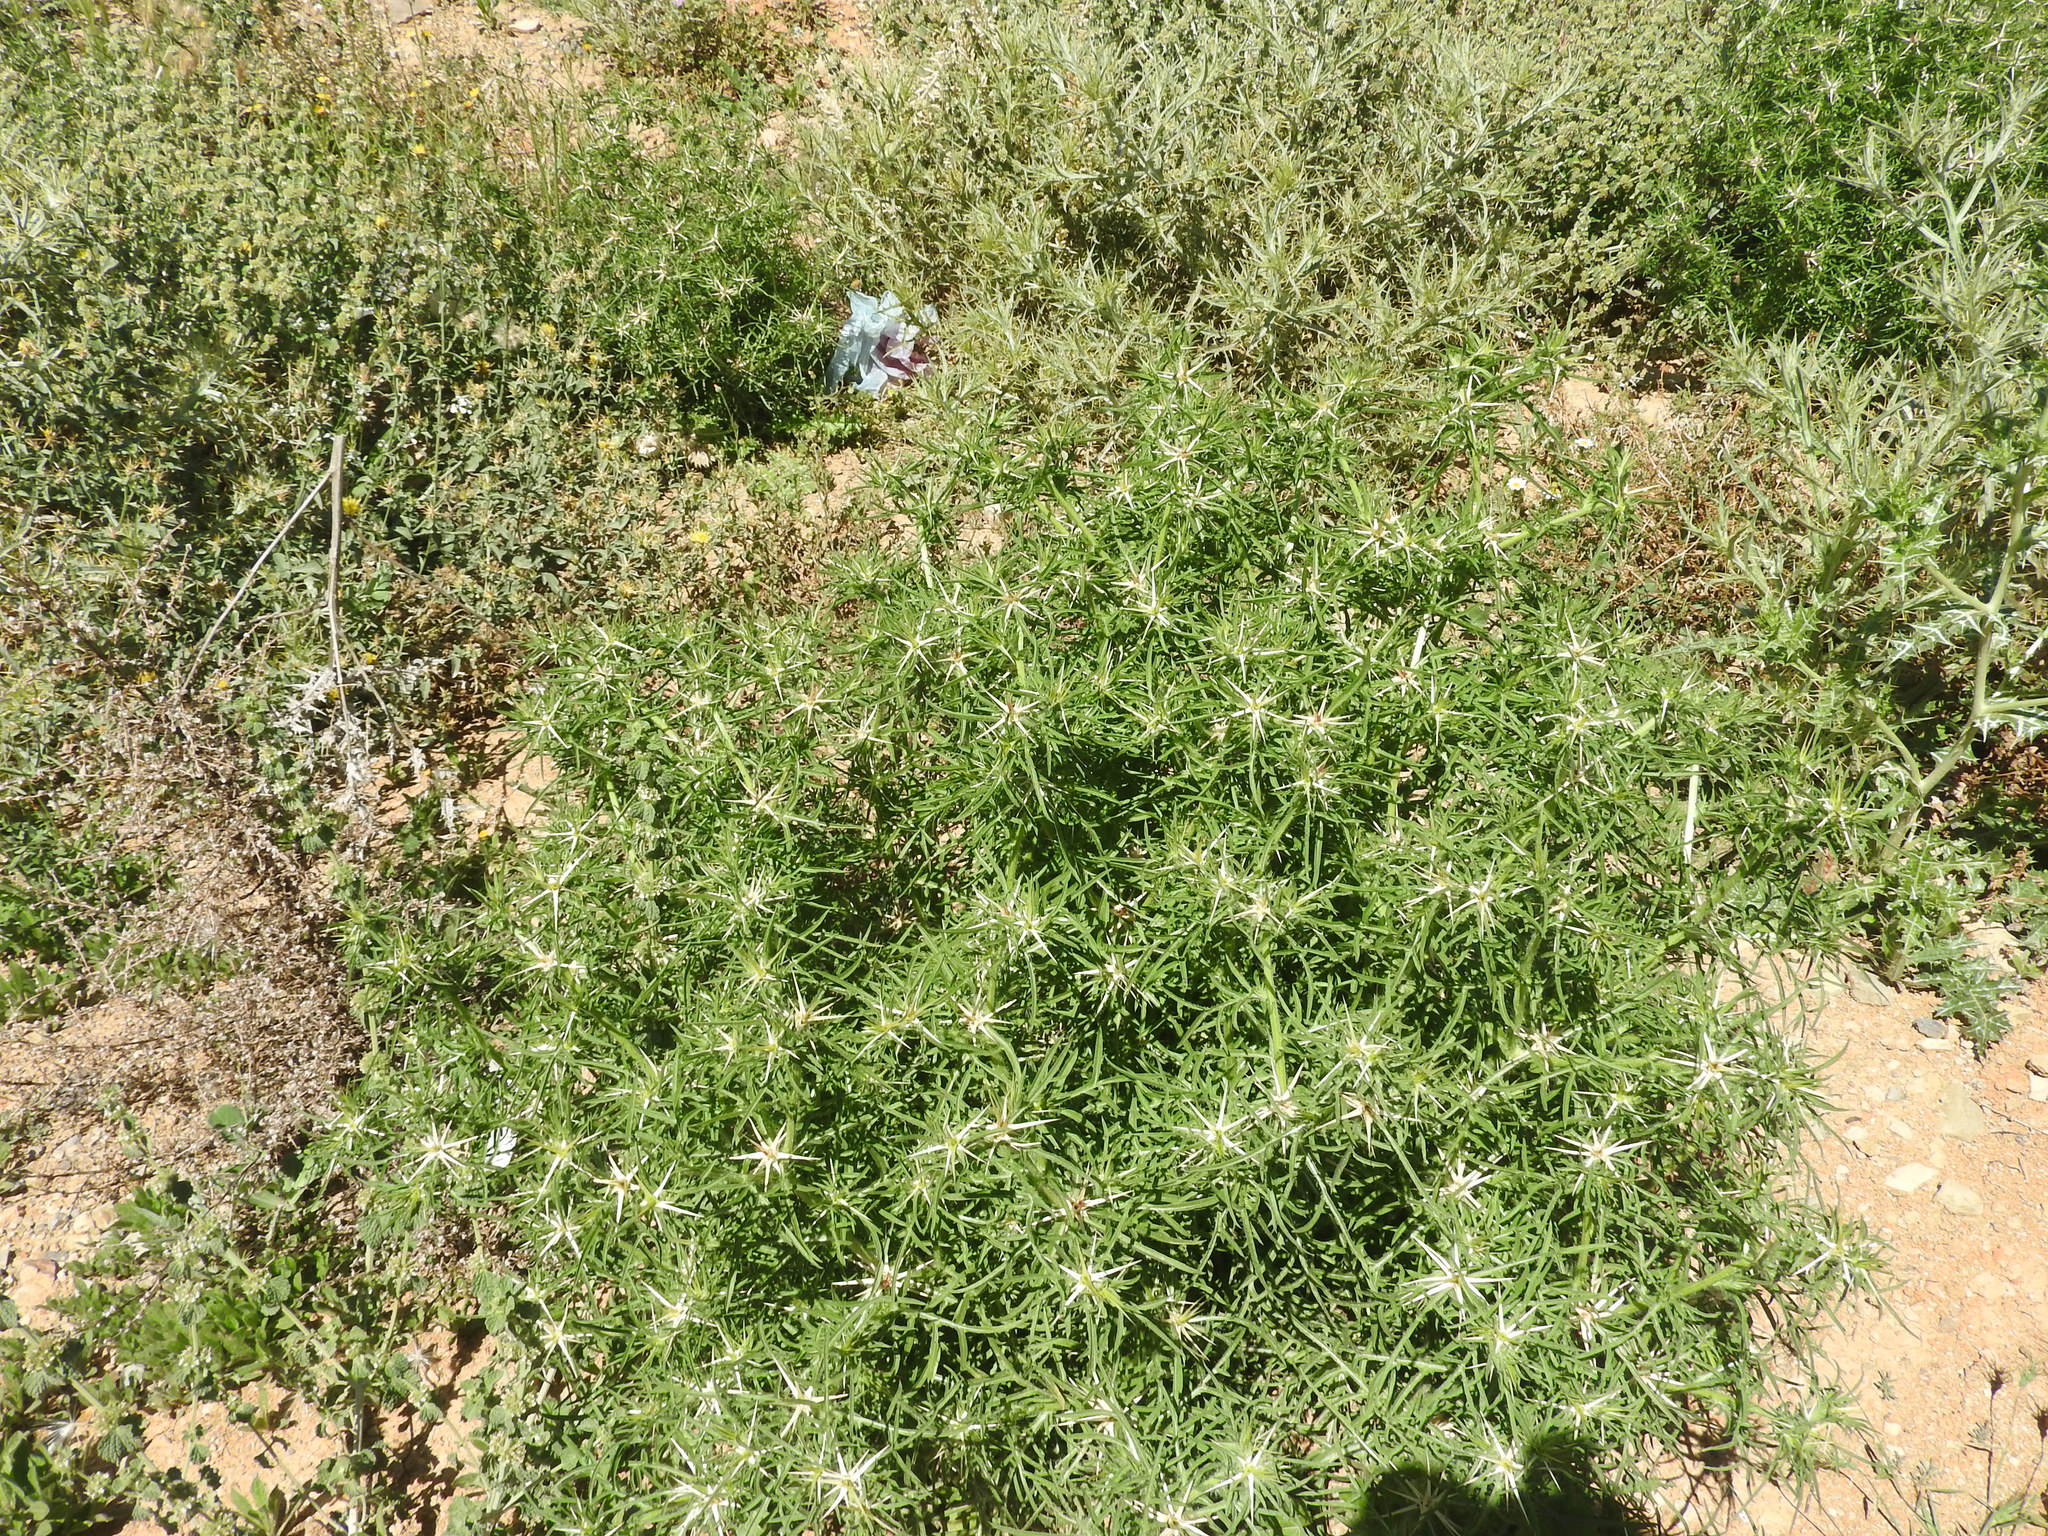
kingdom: Plantae
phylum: Tracheophyta
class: Magnoliopsida
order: Asterales
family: Asteraceae
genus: Centaurea
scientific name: Centaurea calcitrapa
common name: Red star-thistle
